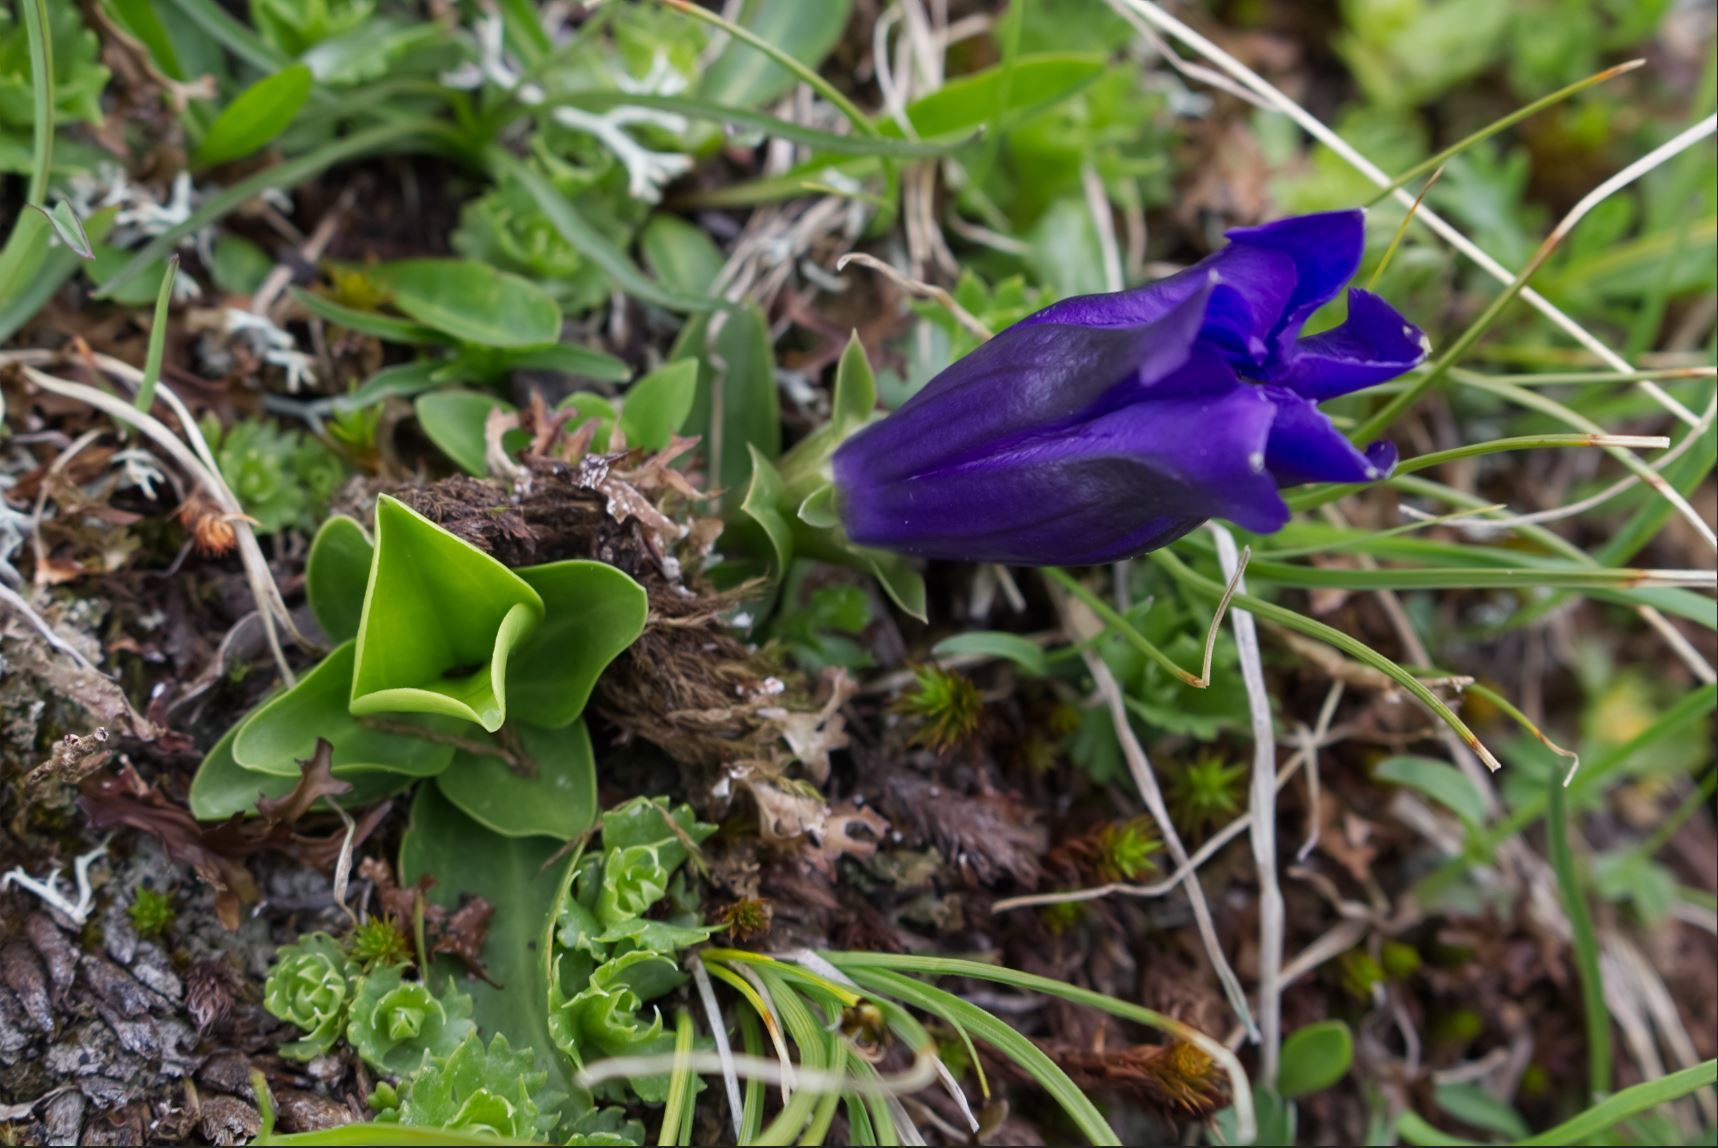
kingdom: Plantae
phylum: Tracheophyta
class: Magnoliopsida
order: Gentianales
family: Gentianaceae
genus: Gentiana
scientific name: Gentiana acaulis
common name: Trumpet gentian
